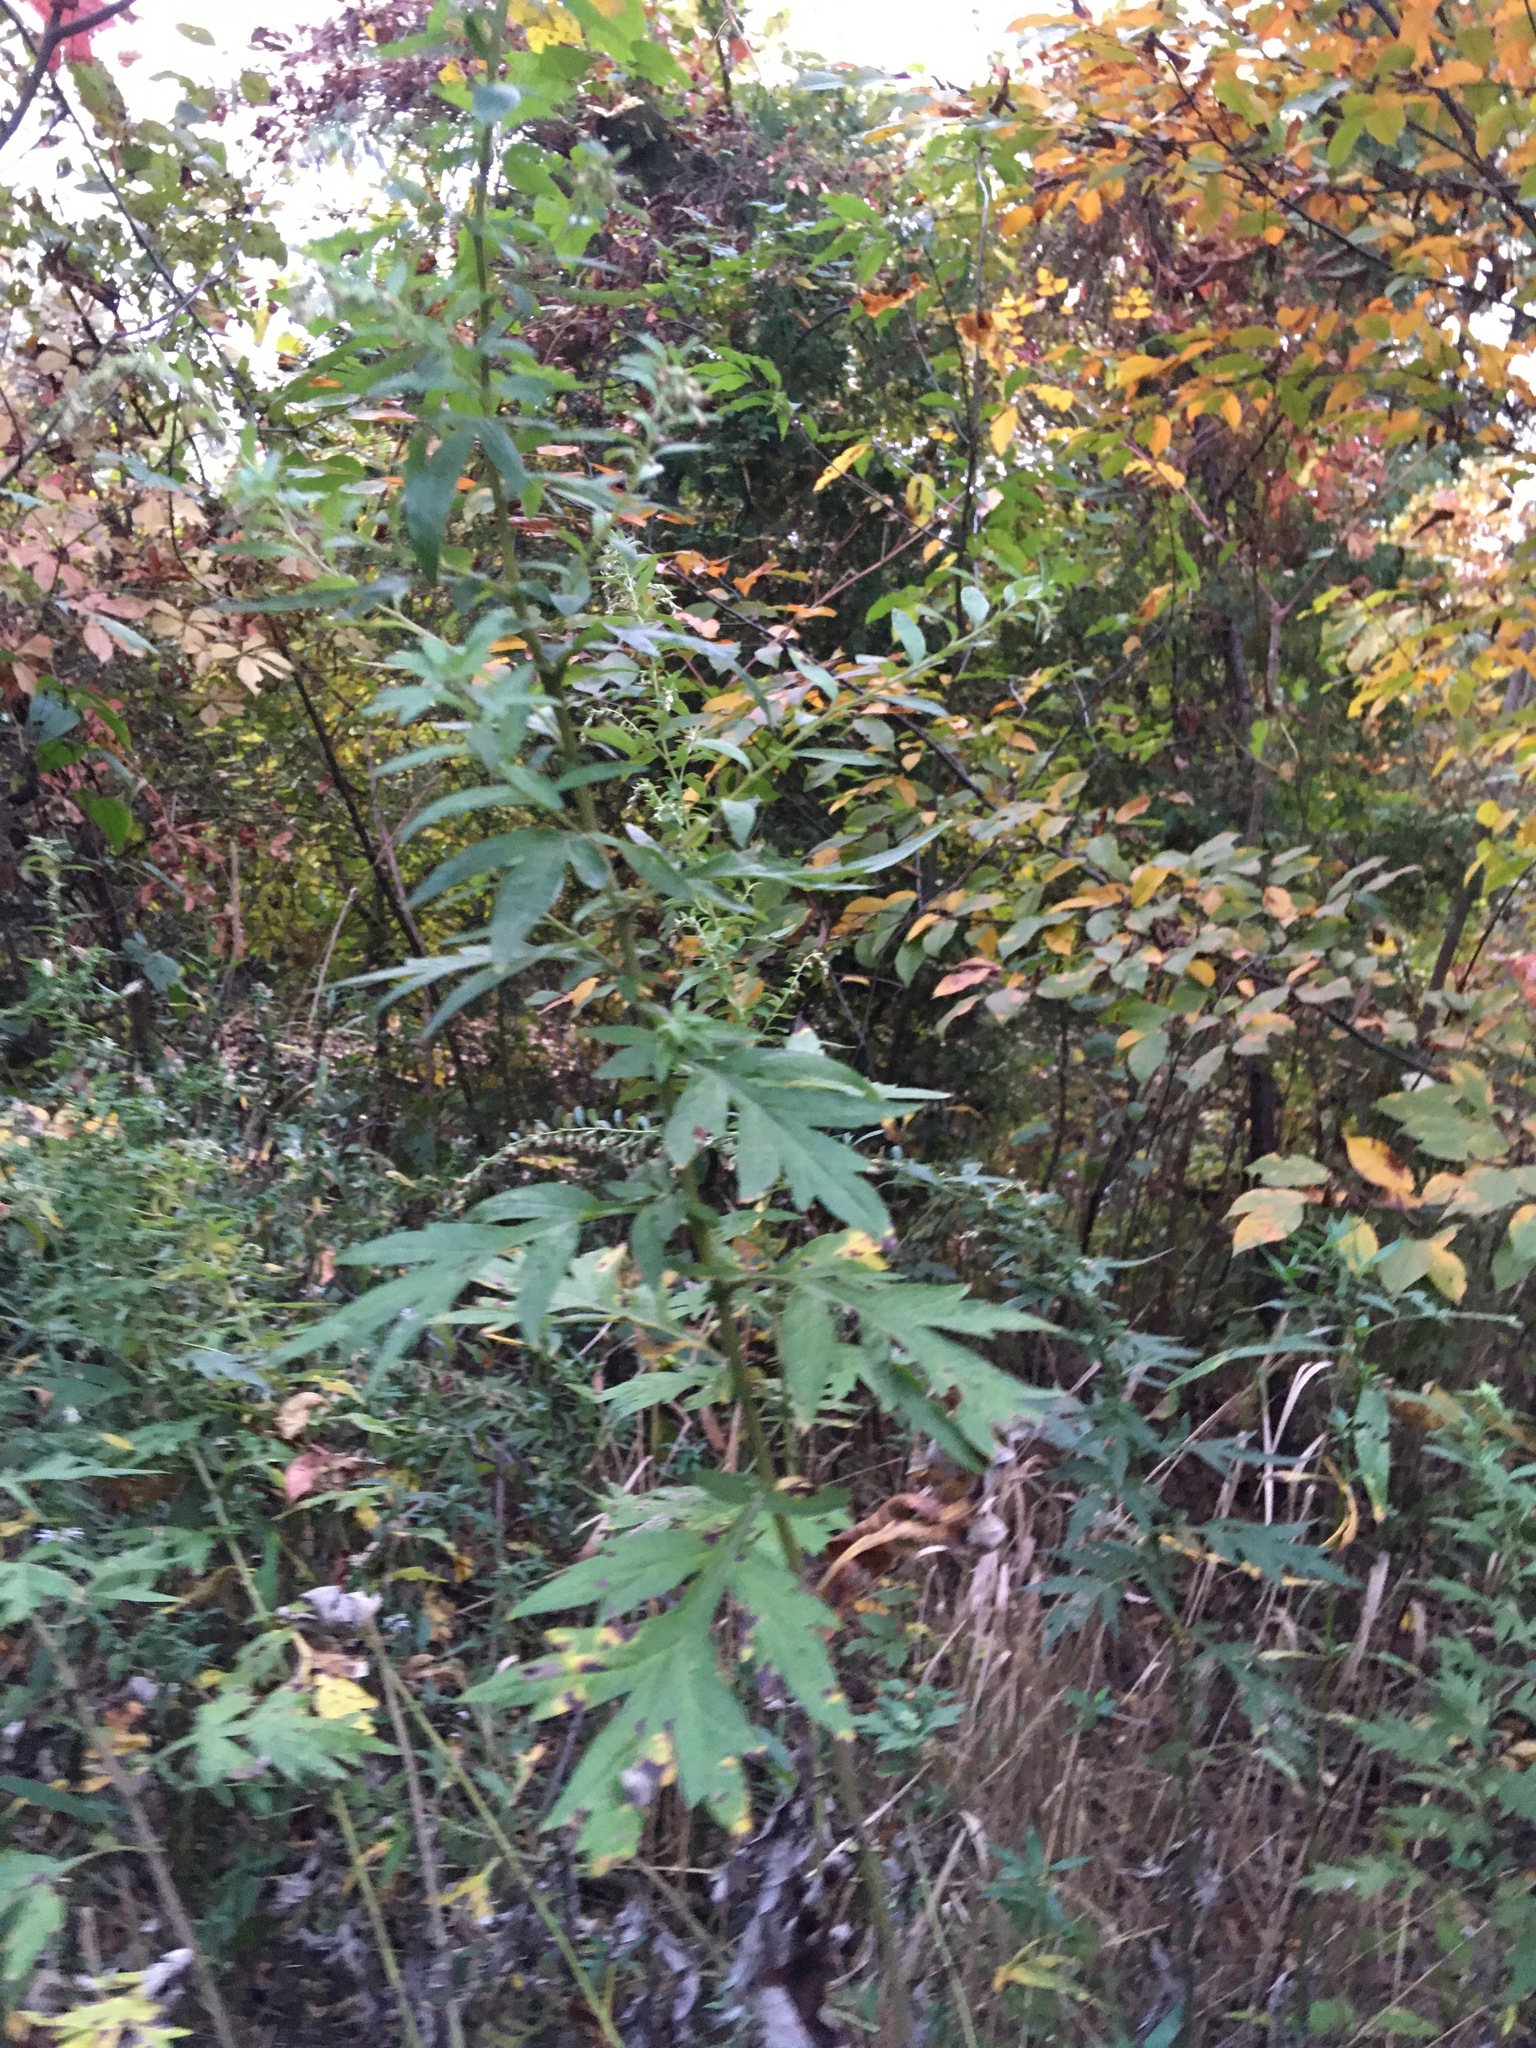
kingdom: Plantae
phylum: Tracheophyta
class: Magnoliopsida
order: Asterales
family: Asteraceae
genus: Artemisia
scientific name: Artemisia vulgaris
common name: Mugwort
